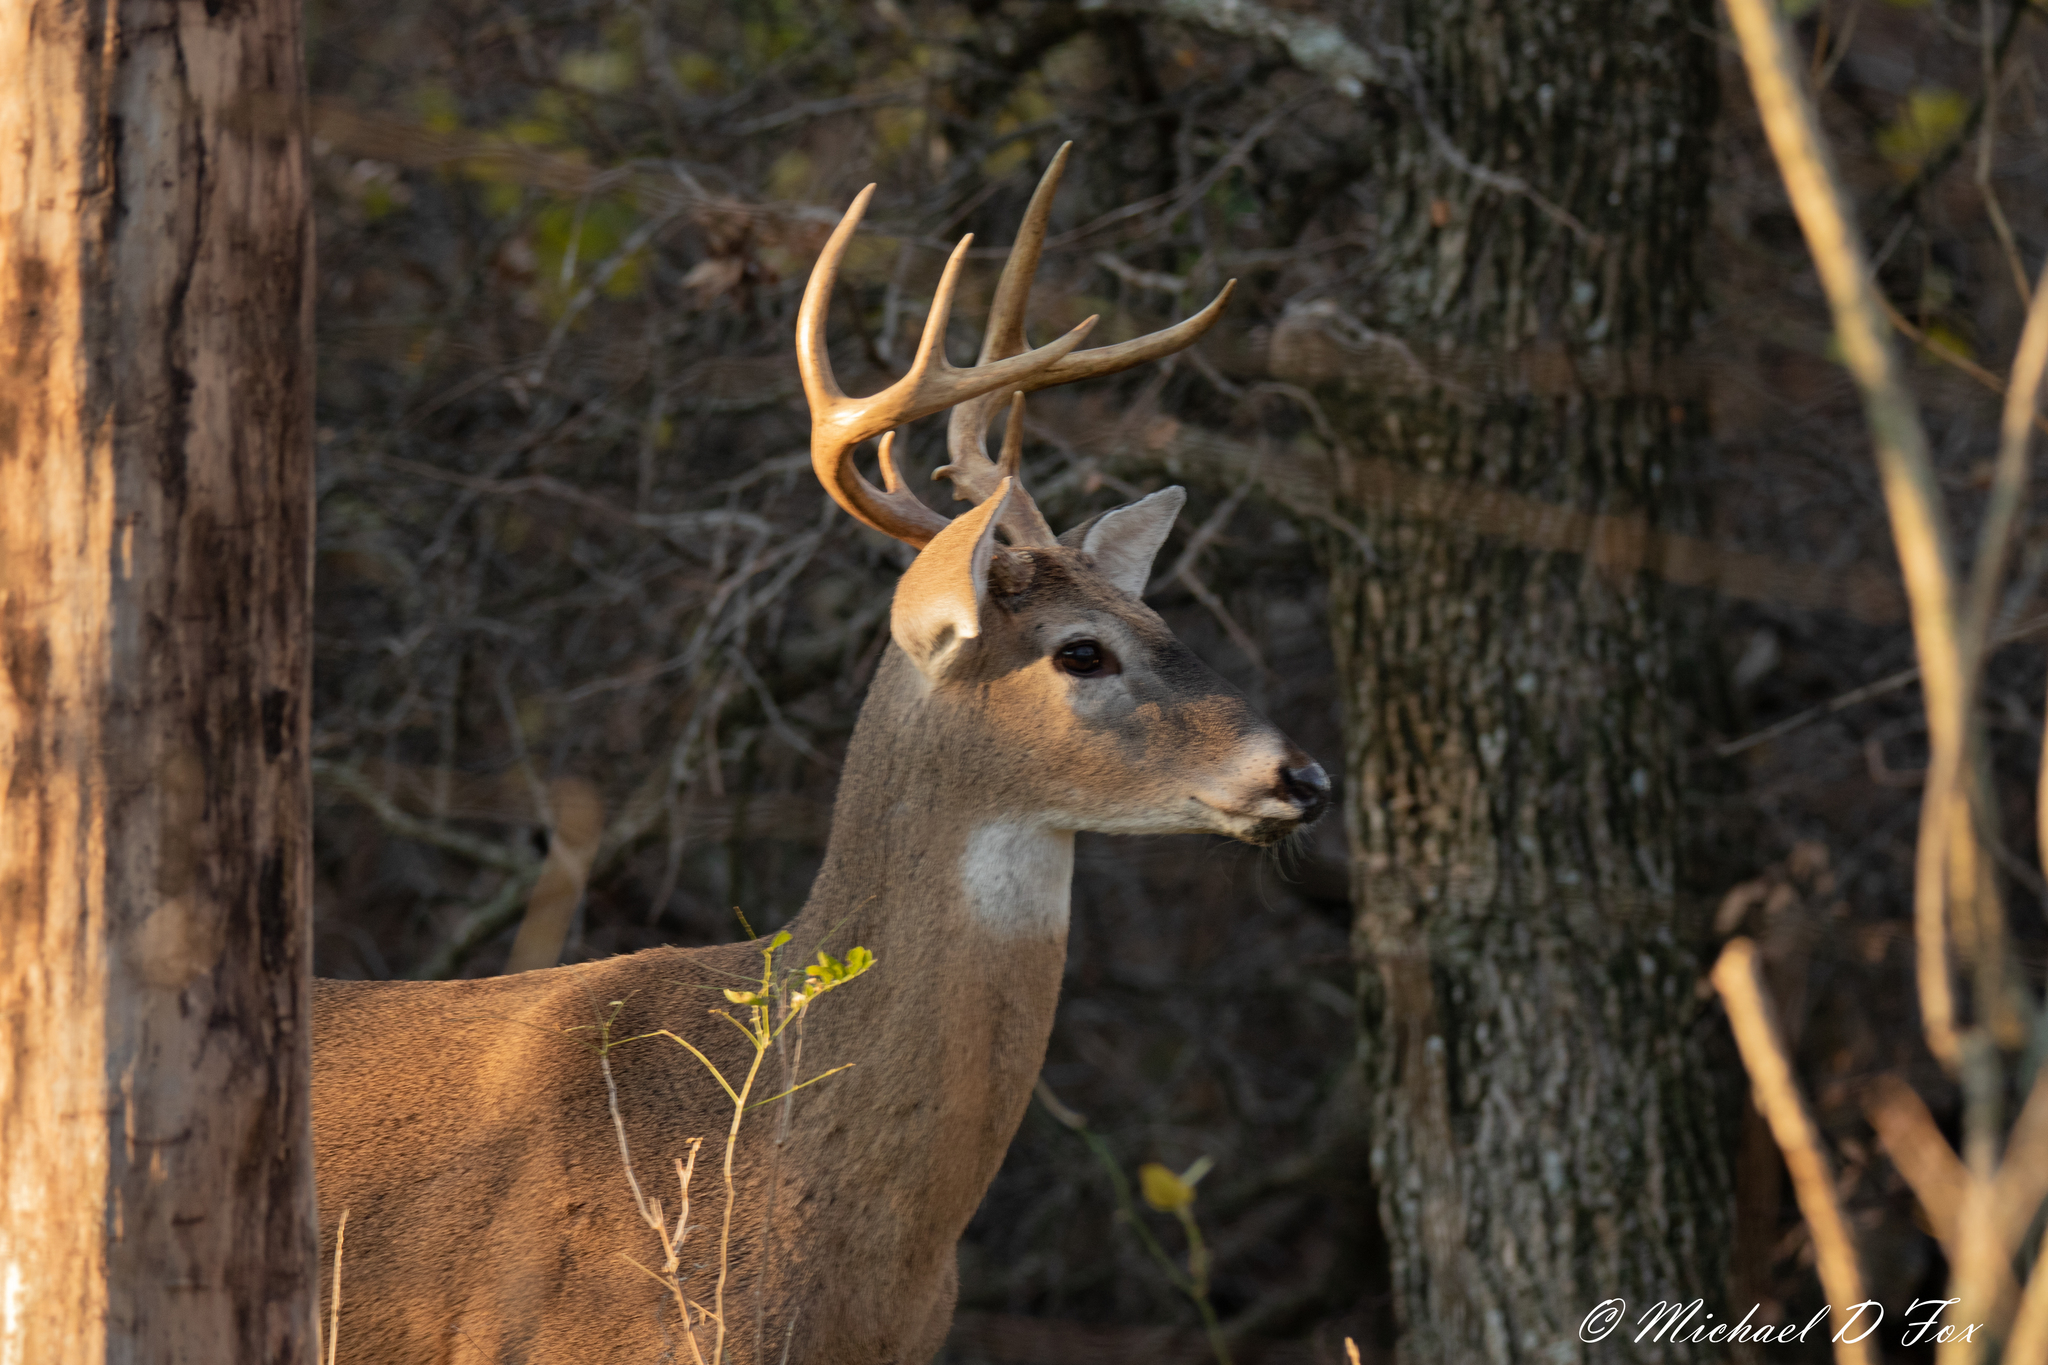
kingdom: Animalia
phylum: Chordata
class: Mammalia
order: Artiodactyla
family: Cervidae
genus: Odocoileus
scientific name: Odocoileus virginianus
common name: White-tailed deer
